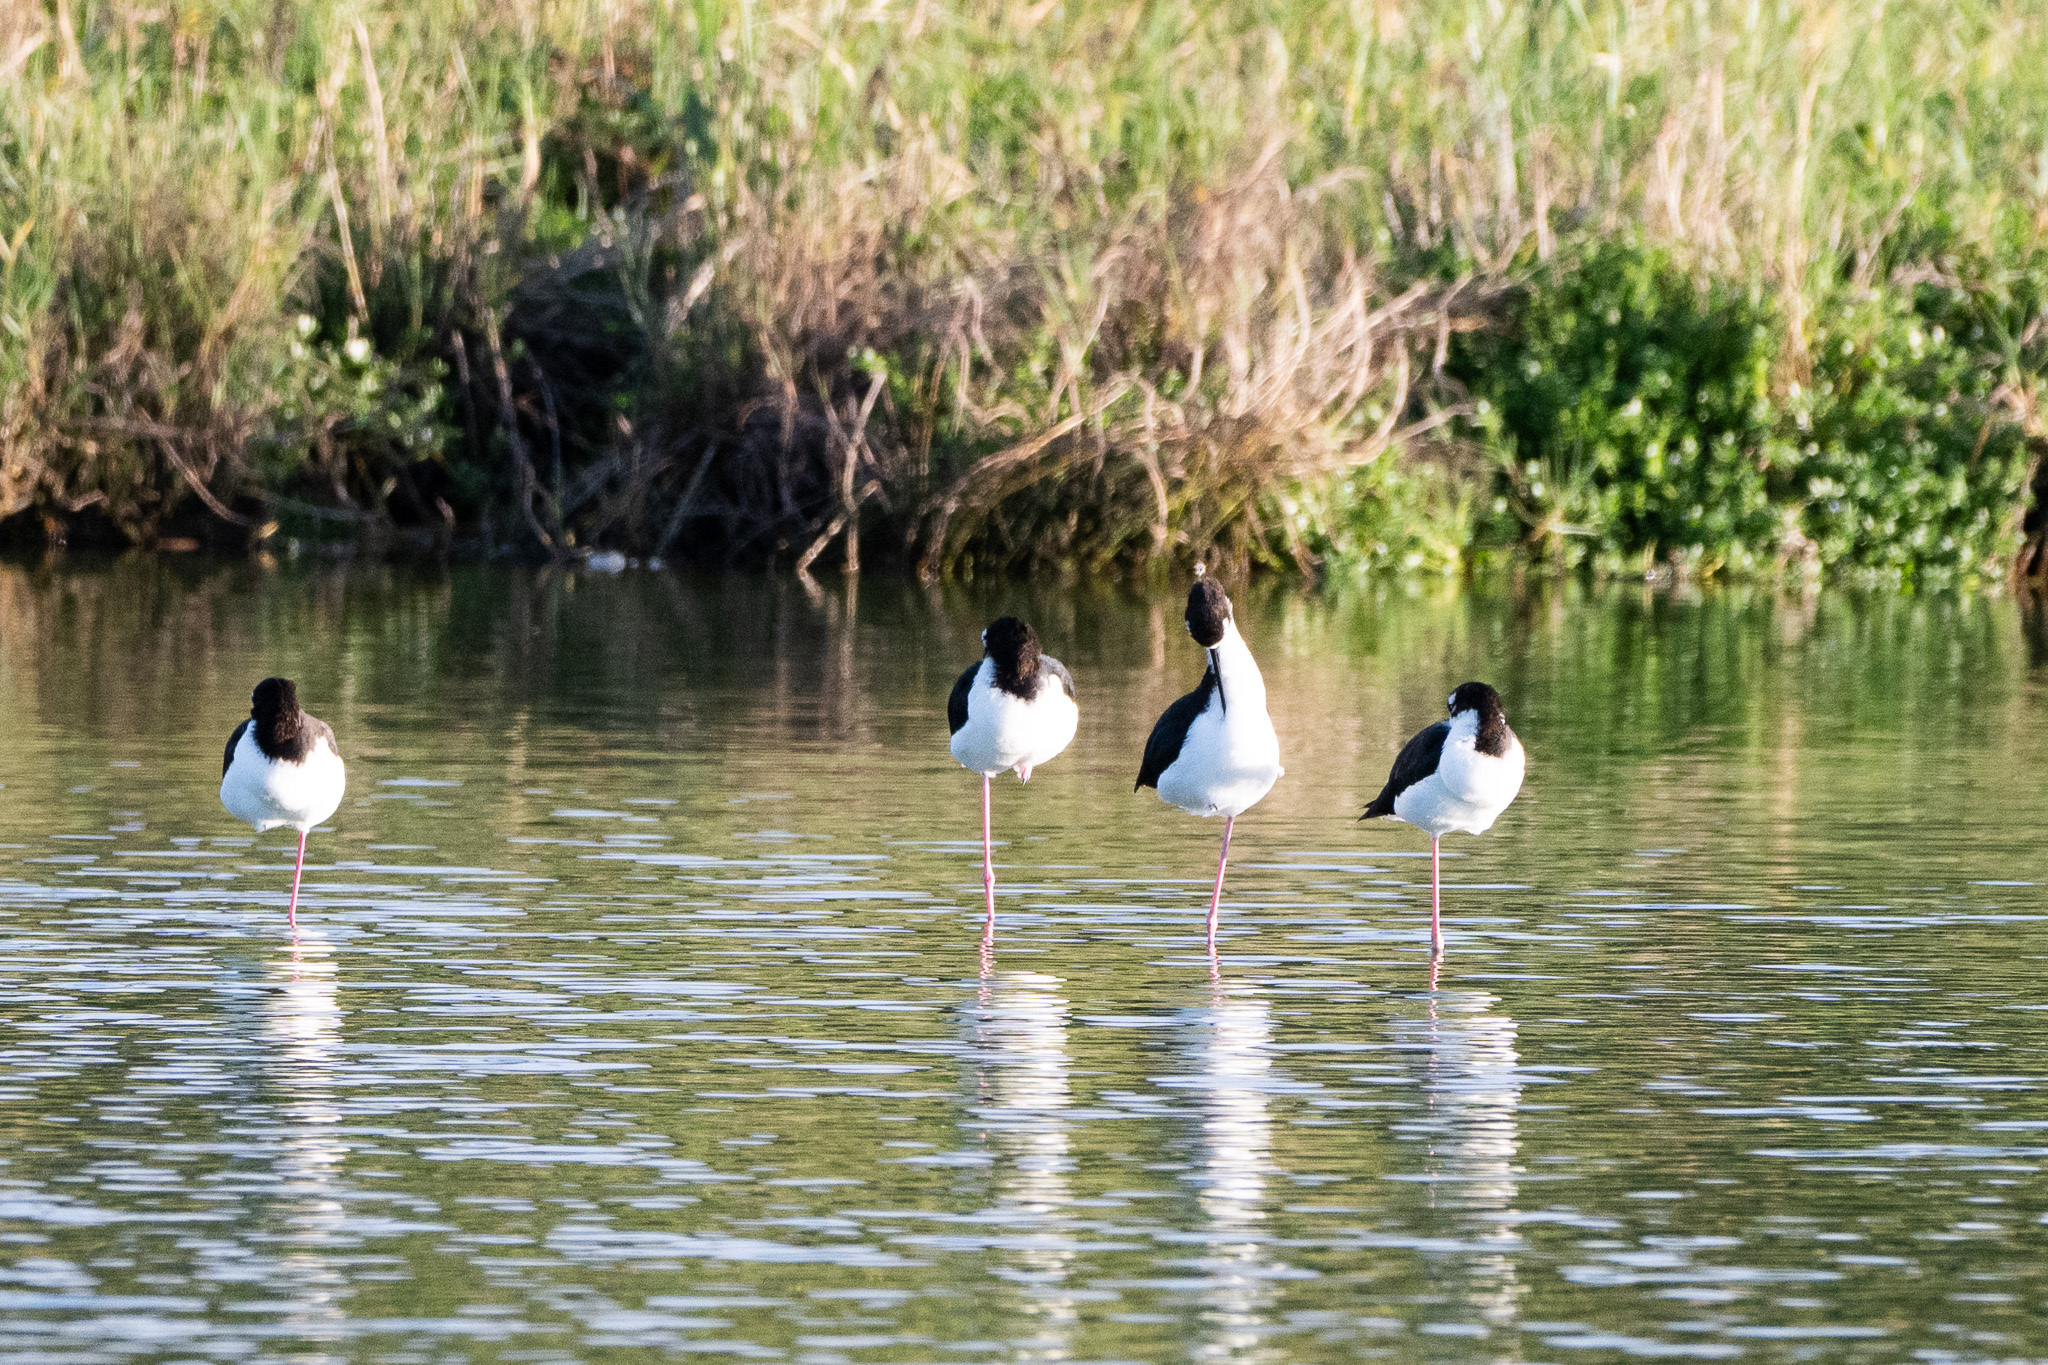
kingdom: Animalia
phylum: Chordata
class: Aves
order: Charadriiformes
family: Recurvirostridae
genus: Himantopus
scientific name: Himantopus mexicanus
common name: Black-necked stilt
